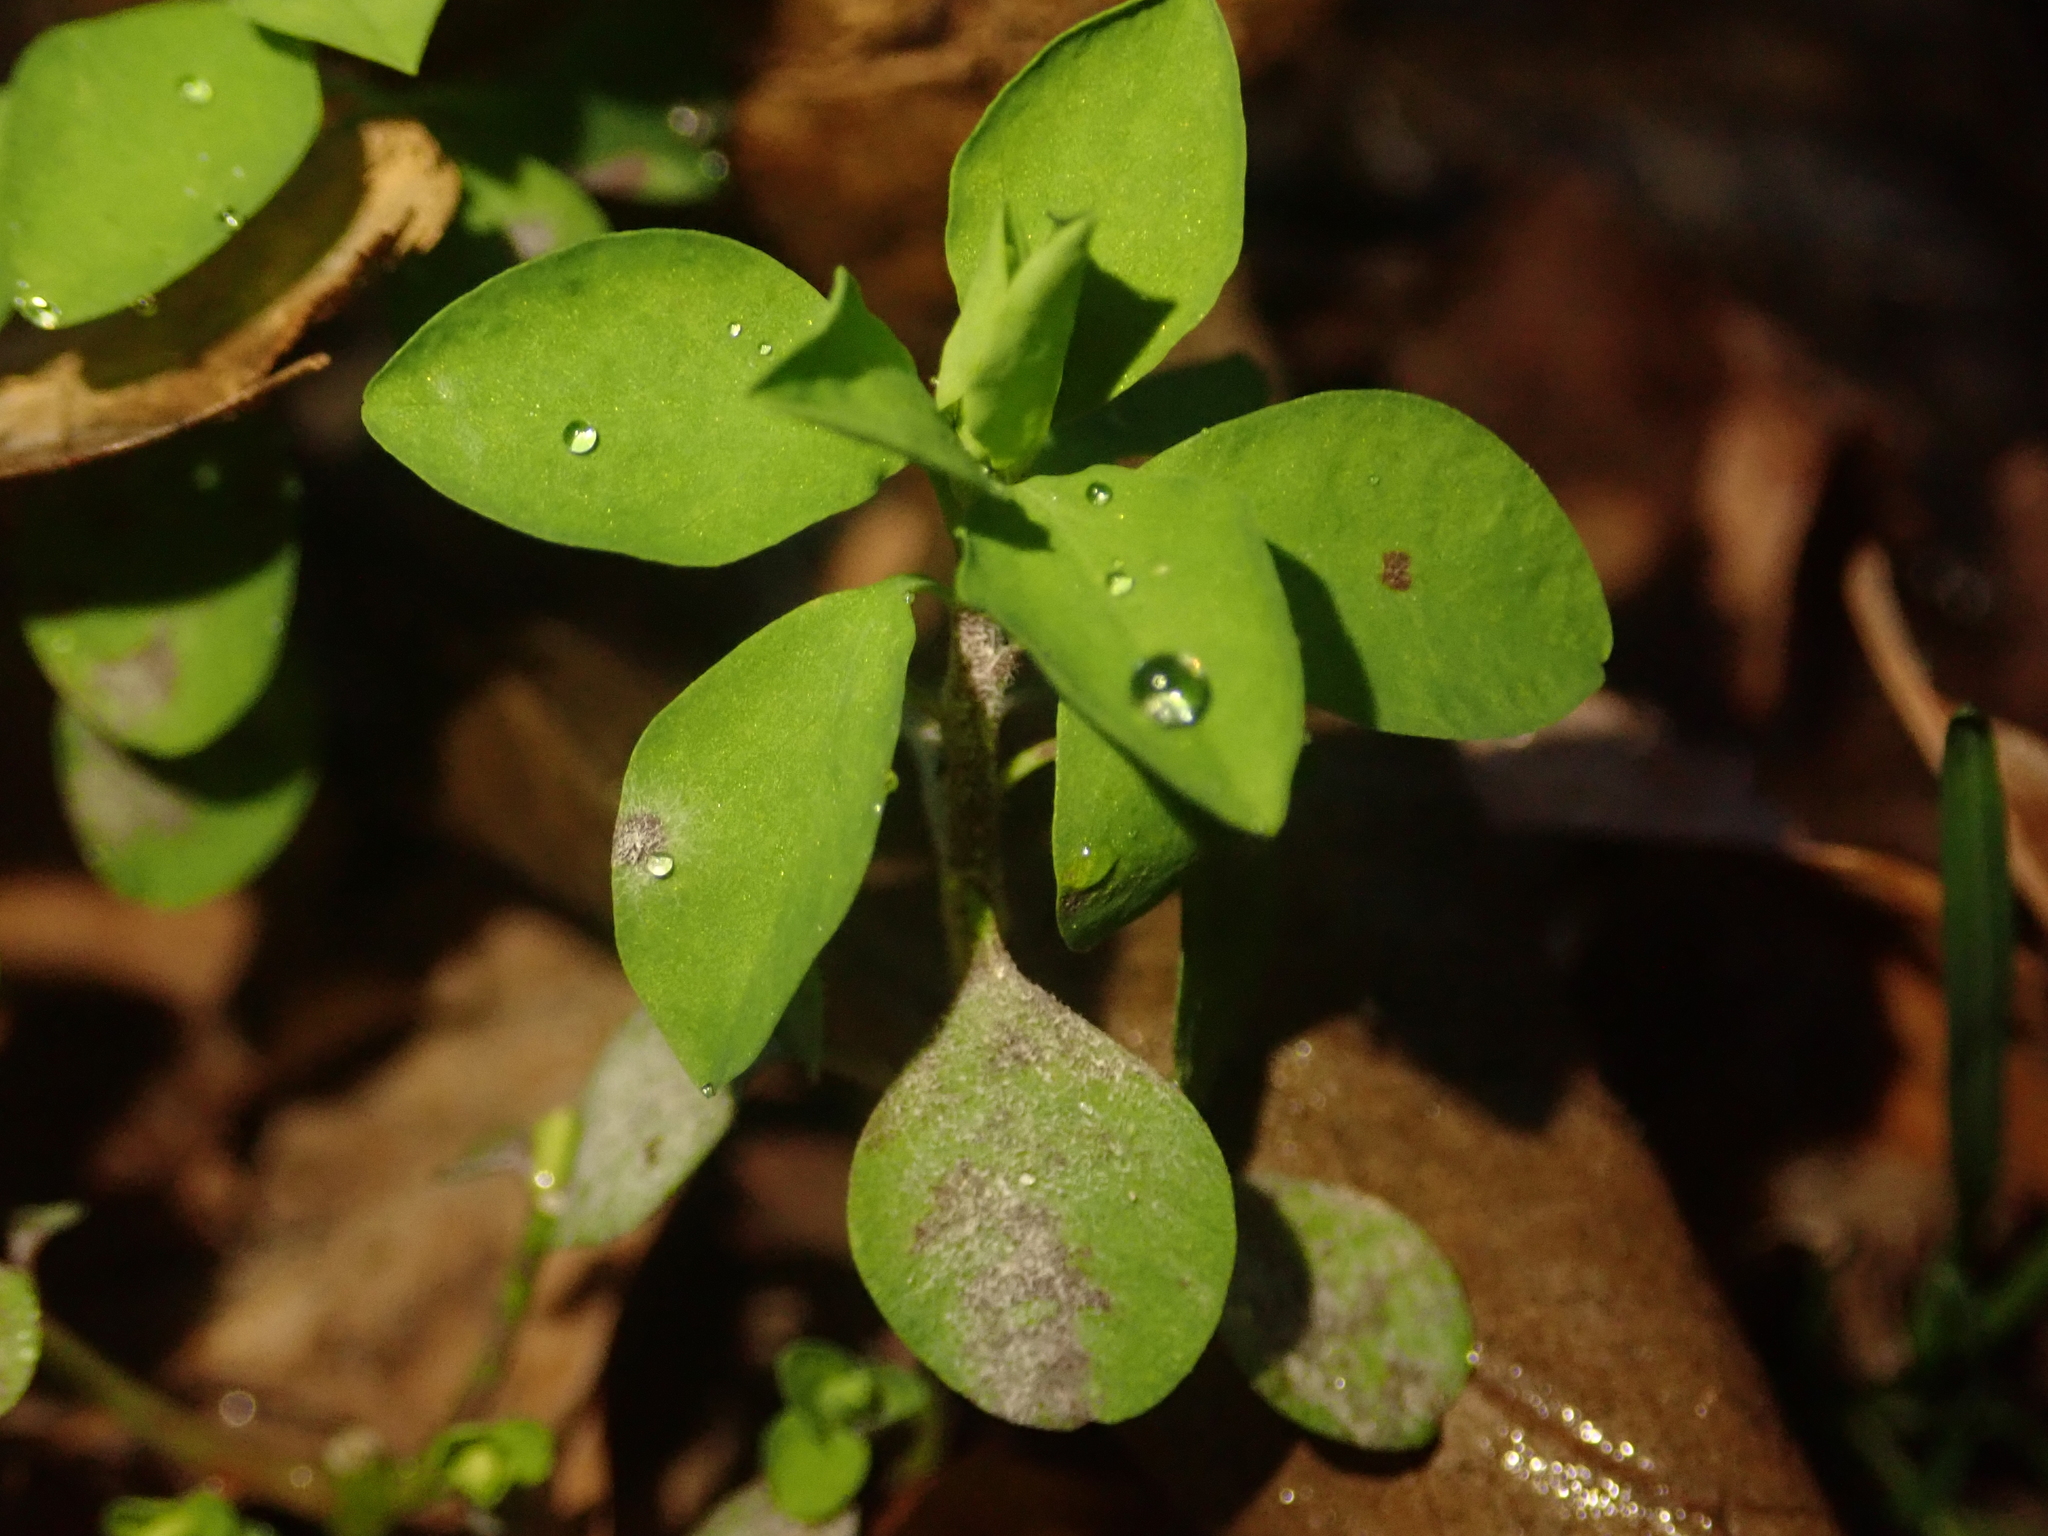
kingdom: Plantae
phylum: Tracheophyta
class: Magnoliopsida
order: Malpighiales
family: Euphorbiaceae
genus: Euphorbia
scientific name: Euphorbia peplus
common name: Petty spurge
